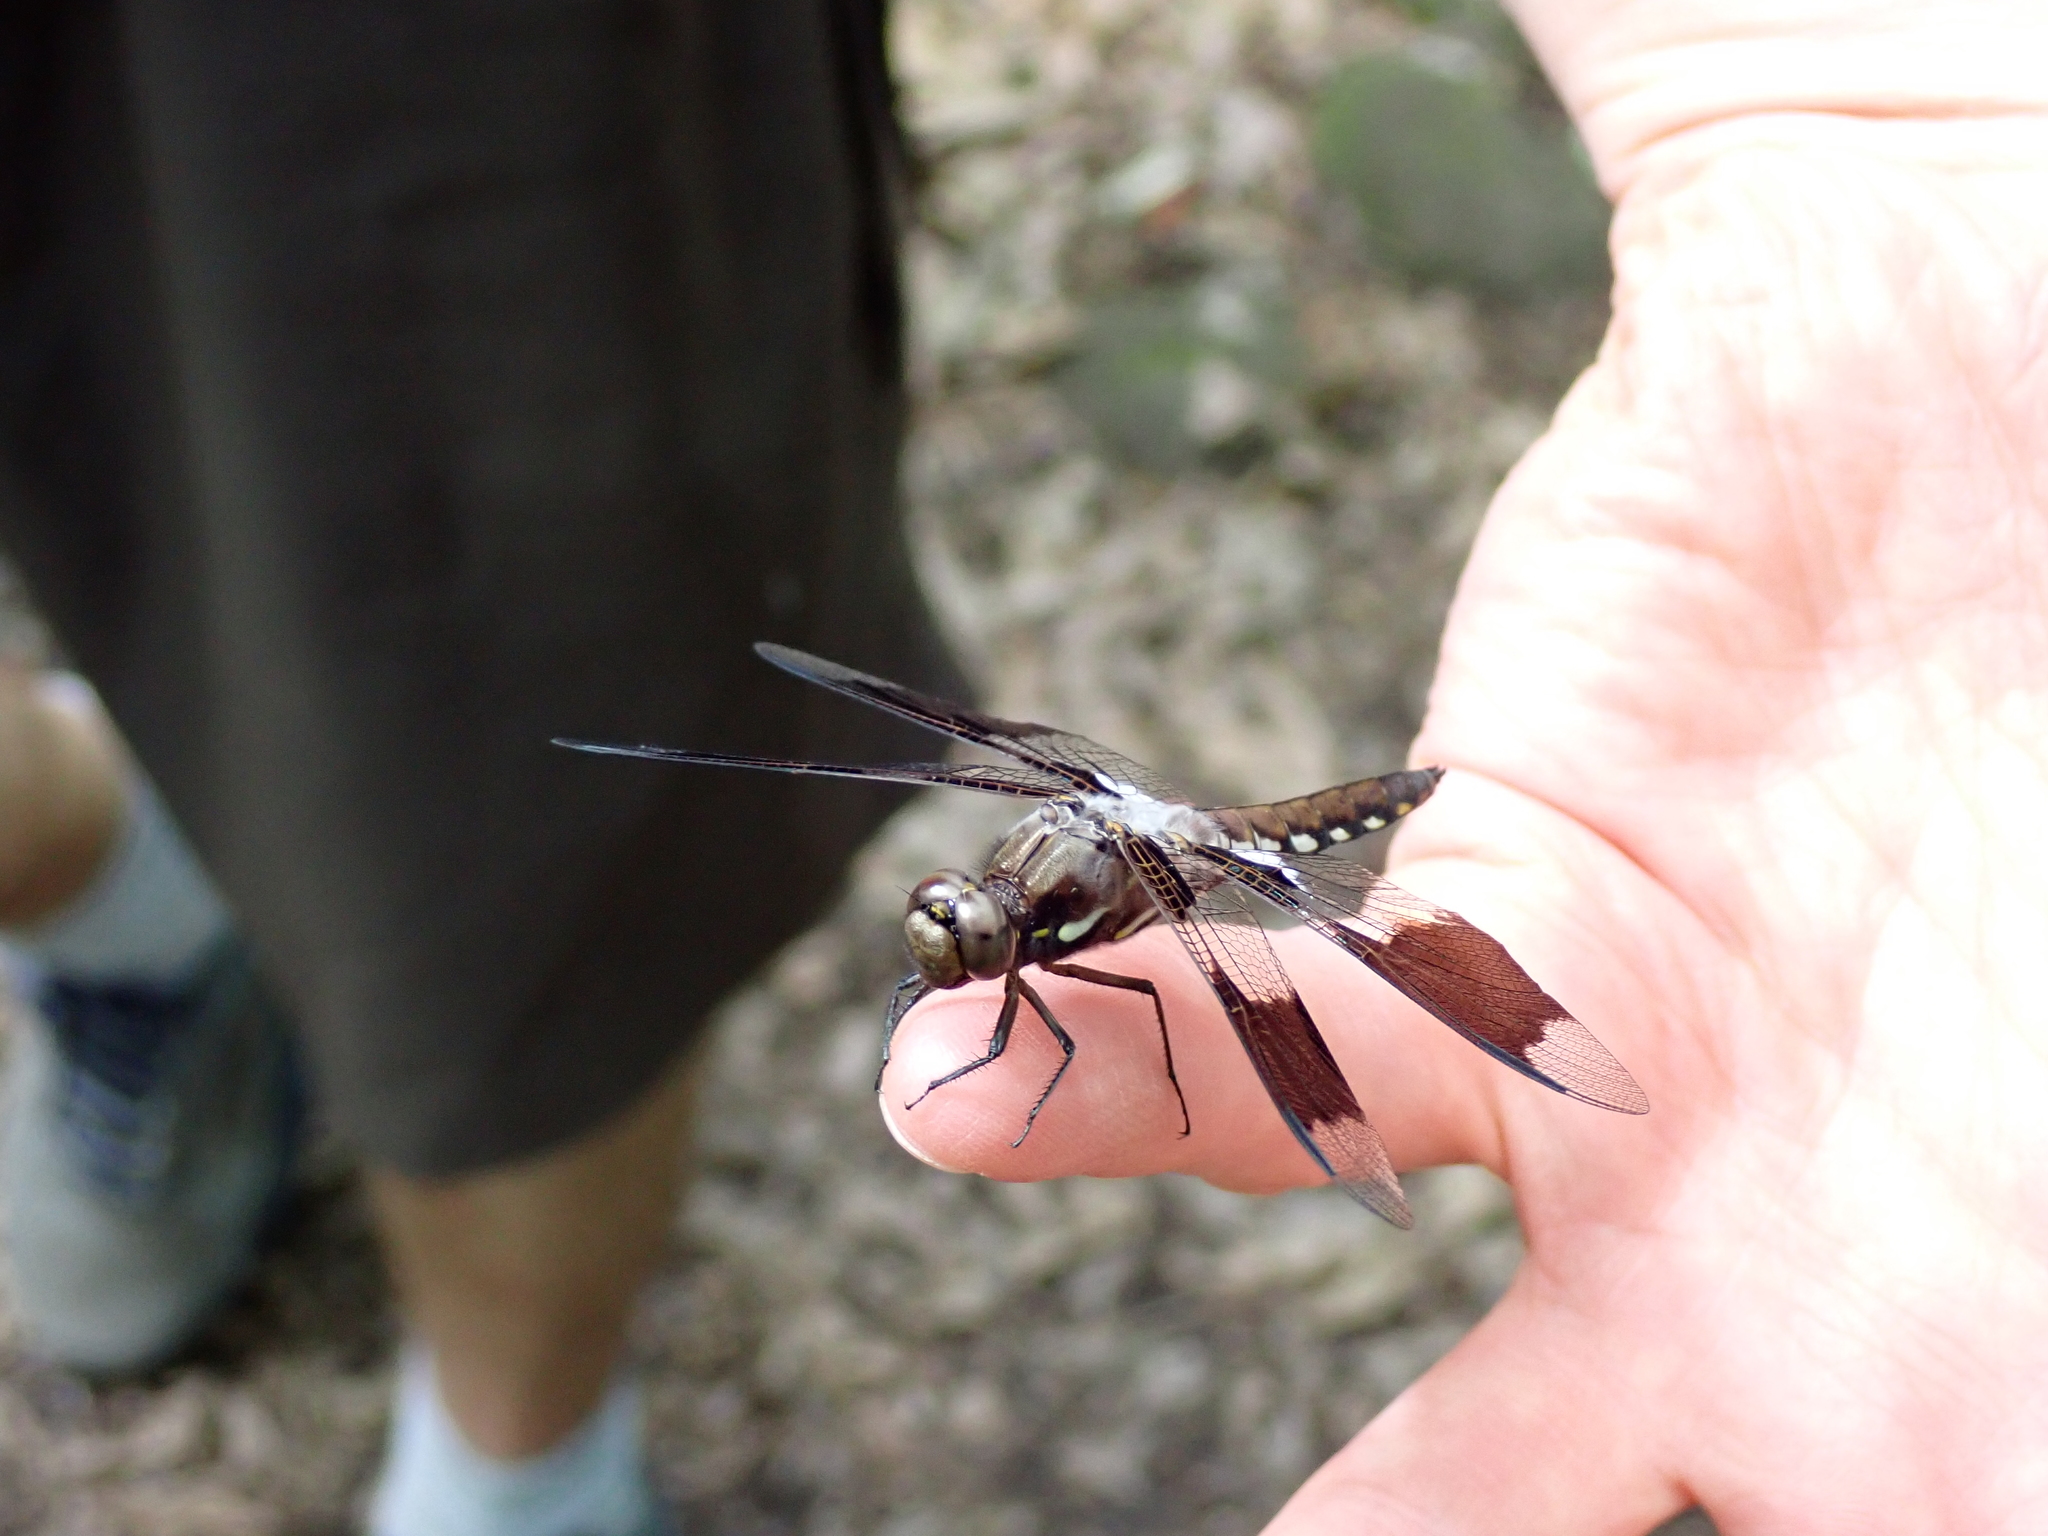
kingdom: Animalia
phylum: Arthropoda
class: Insecta
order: Odonata
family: Libellulidae
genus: Plathemis
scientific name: Plathemis lydia
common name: Common whitetail
